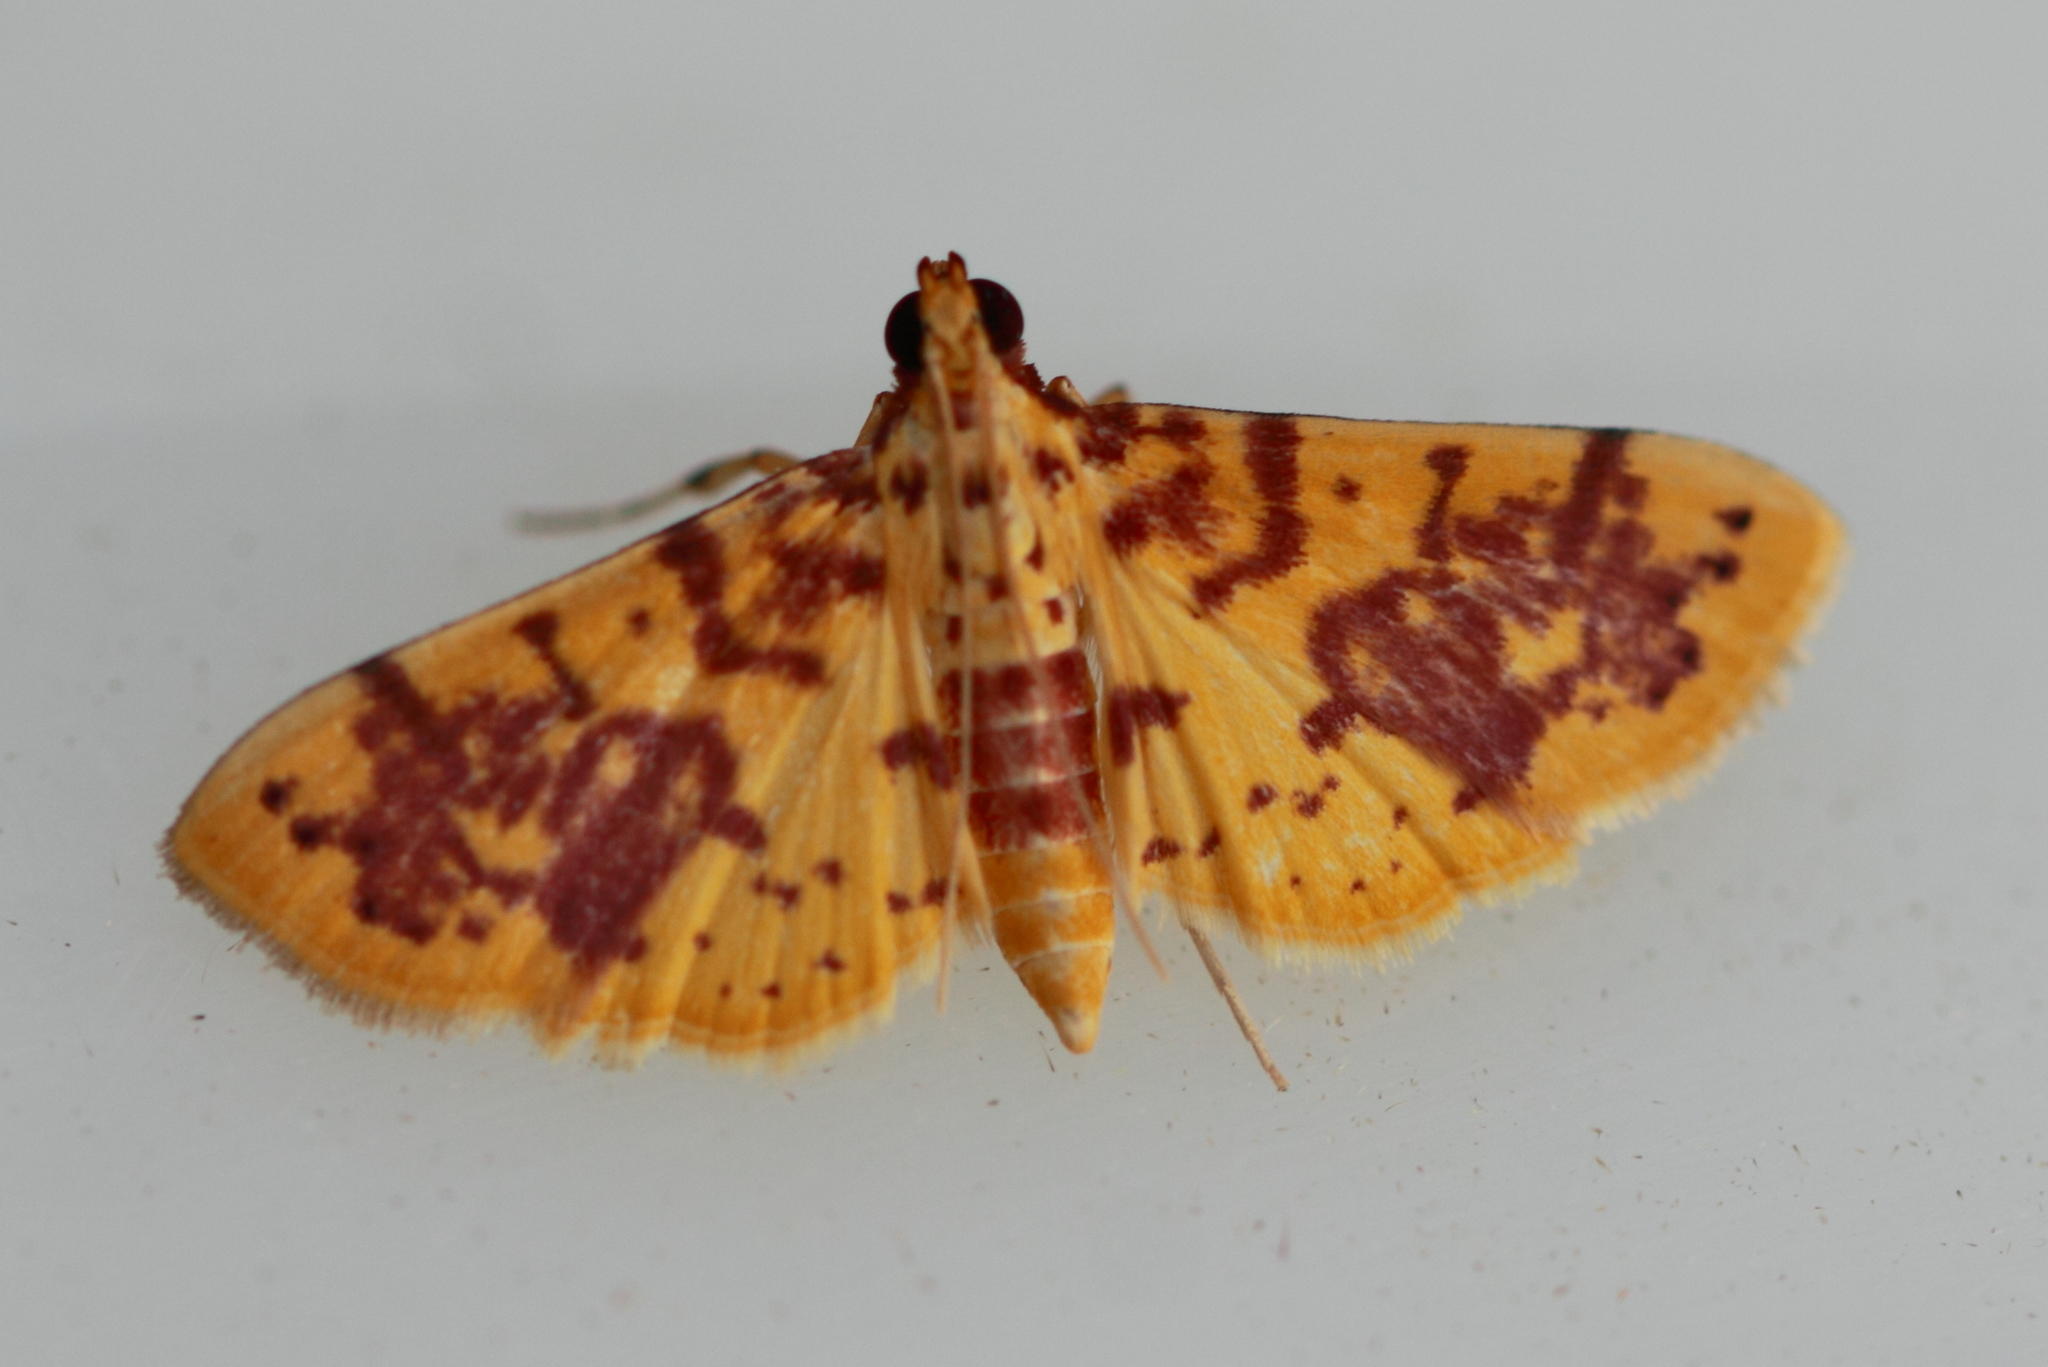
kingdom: Animalia
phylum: Arthropoda
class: Insecta
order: Lepidoptera
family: Crambidae
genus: Conogethes
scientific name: Conogethes haemactalis
